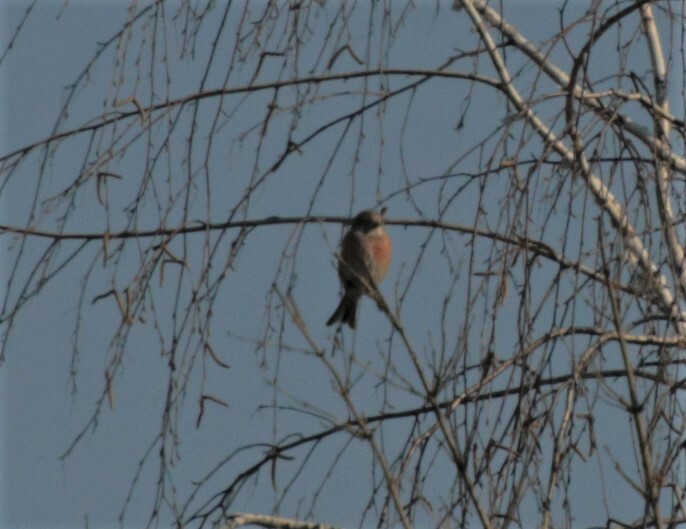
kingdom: Animalia
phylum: Chordata
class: Aves
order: Passeriformes
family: Fringillidae
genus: Linaria
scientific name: Linaria cannabina
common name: Common linnet
